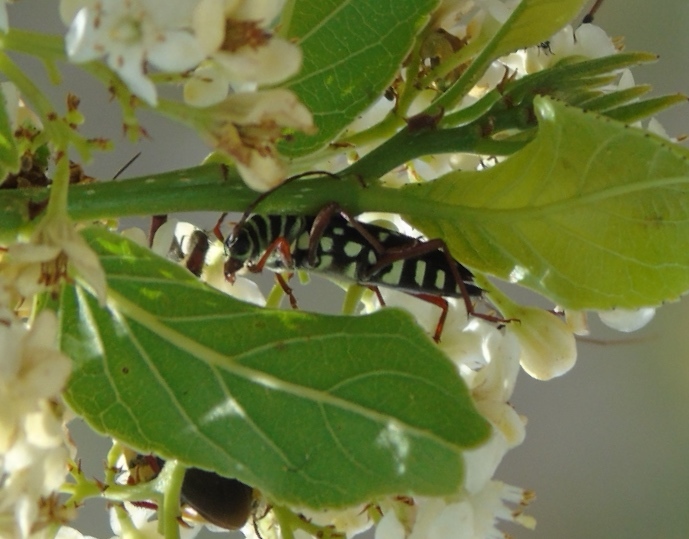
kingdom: Animalia
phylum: Arthropoda
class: Insecta
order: Coleoptera
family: Cerambycidae
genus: Placosternus
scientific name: Placosternus
